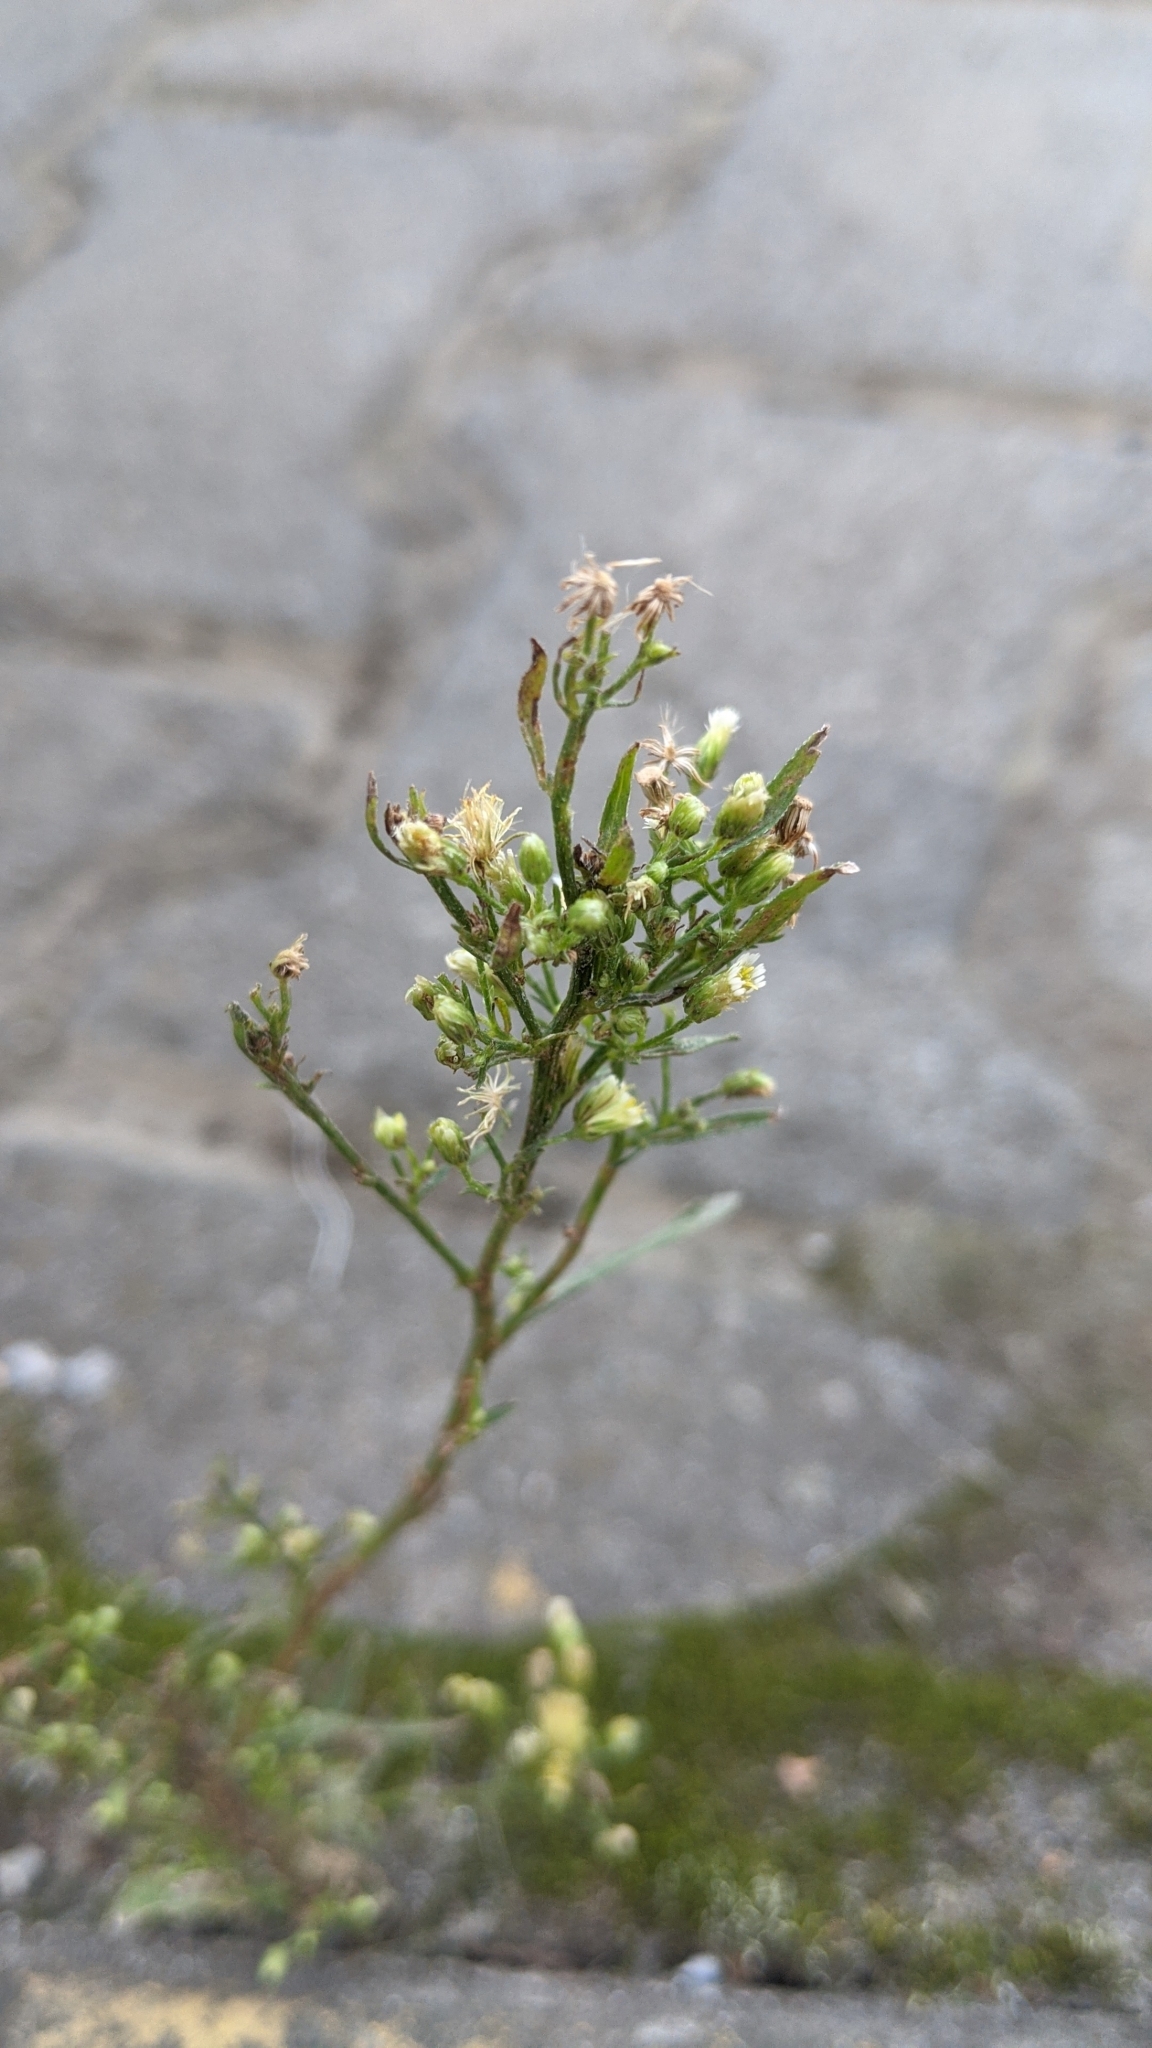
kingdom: Plantae
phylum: Tracheophyta
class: Magnoliopsida
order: Asterales
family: Asteraceae
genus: Erigeron
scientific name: Erigeron canadensis
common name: Canadian fleabane
